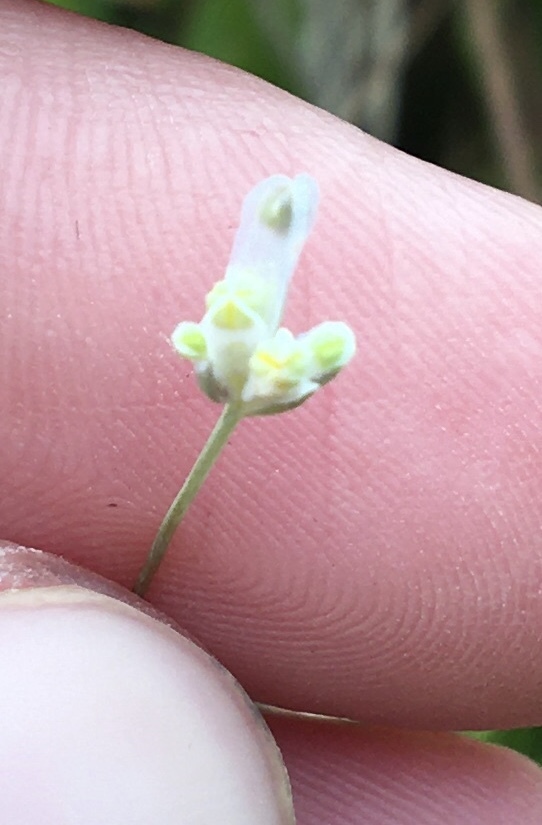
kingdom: Plantae
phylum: Tracheophyta
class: Liliopsida
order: Dioscoreales
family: Burmanniaceae
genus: Burmannia
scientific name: Burmannia capitata
